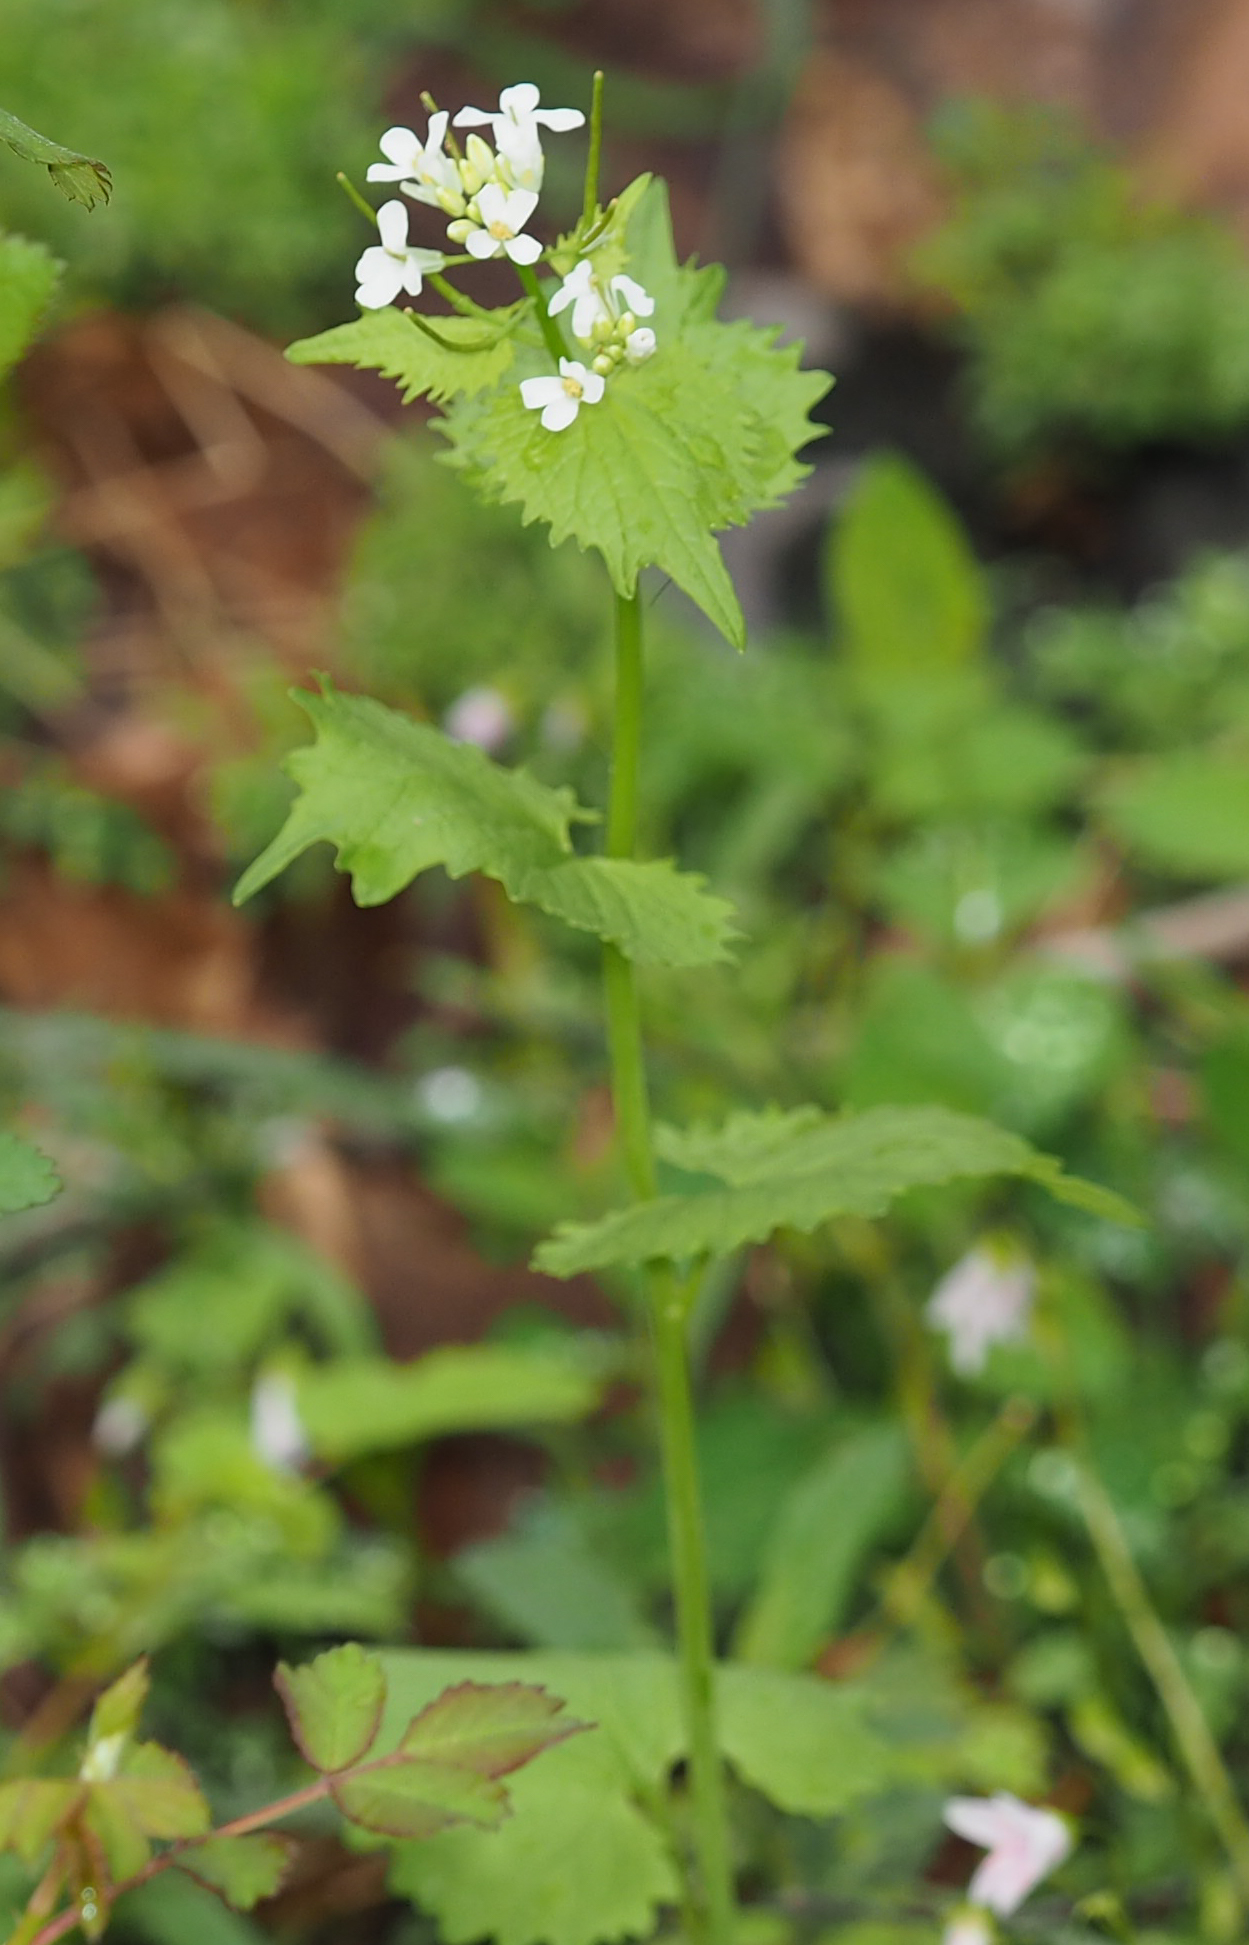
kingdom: Plantae
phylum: Tracheophyta
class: Magnoliopsida
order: Brassicales
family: Brassicaceae
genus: Alliaria
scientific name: Alliaria petiolata
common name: Garlic mustard
